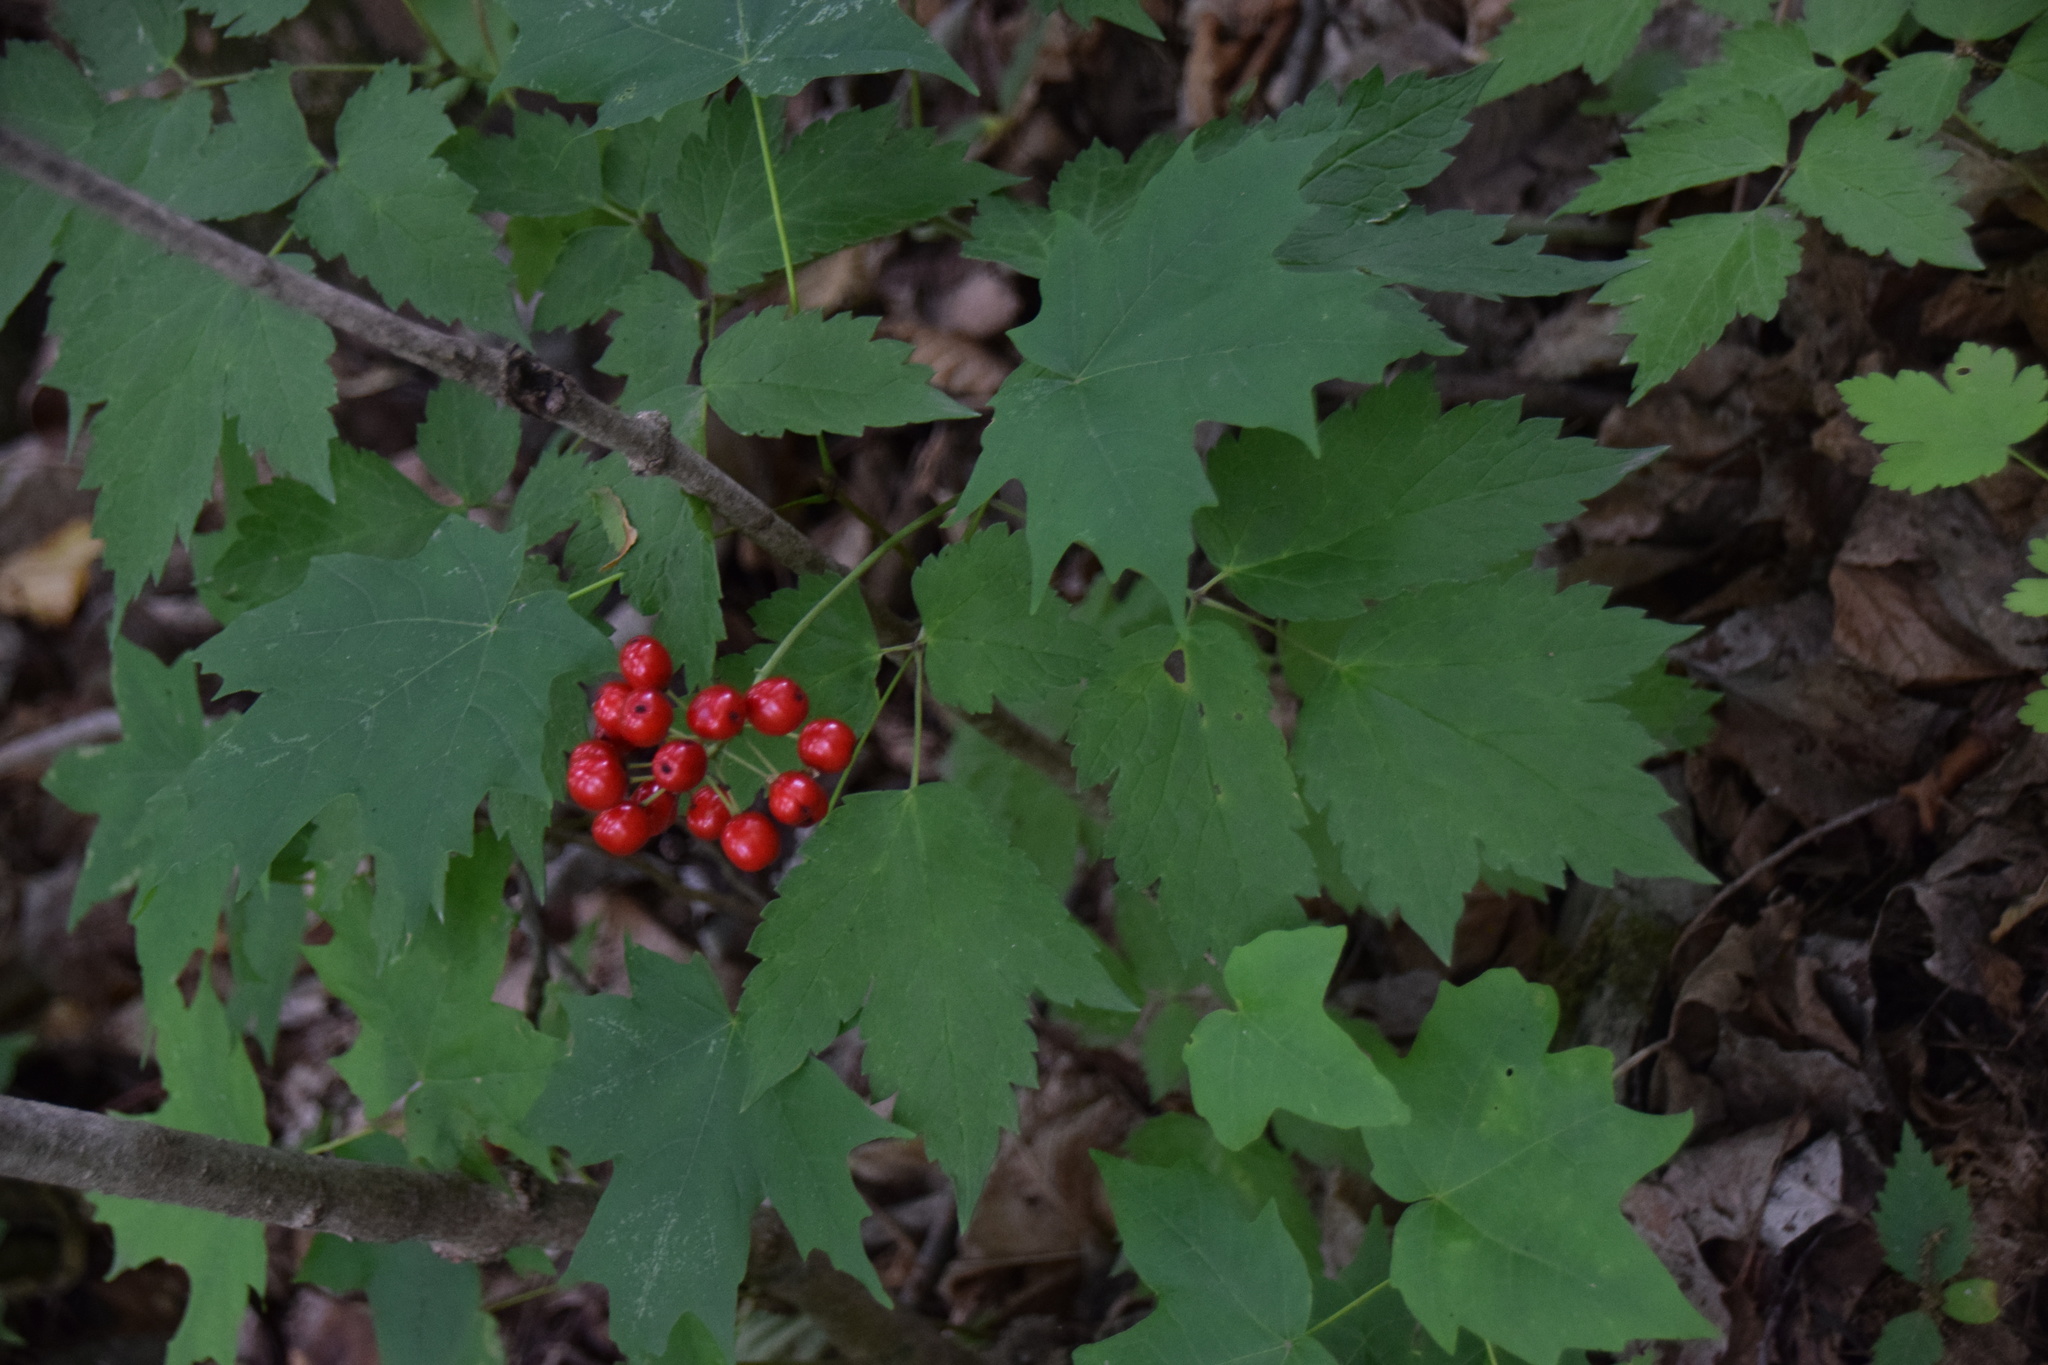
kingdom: Plantae
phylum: Tracheophyta
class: Magnoliopsida
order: Ranunculales
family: Ranunculaceae
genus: Actaea
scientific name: Actaea rubra
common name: Red baneberry
